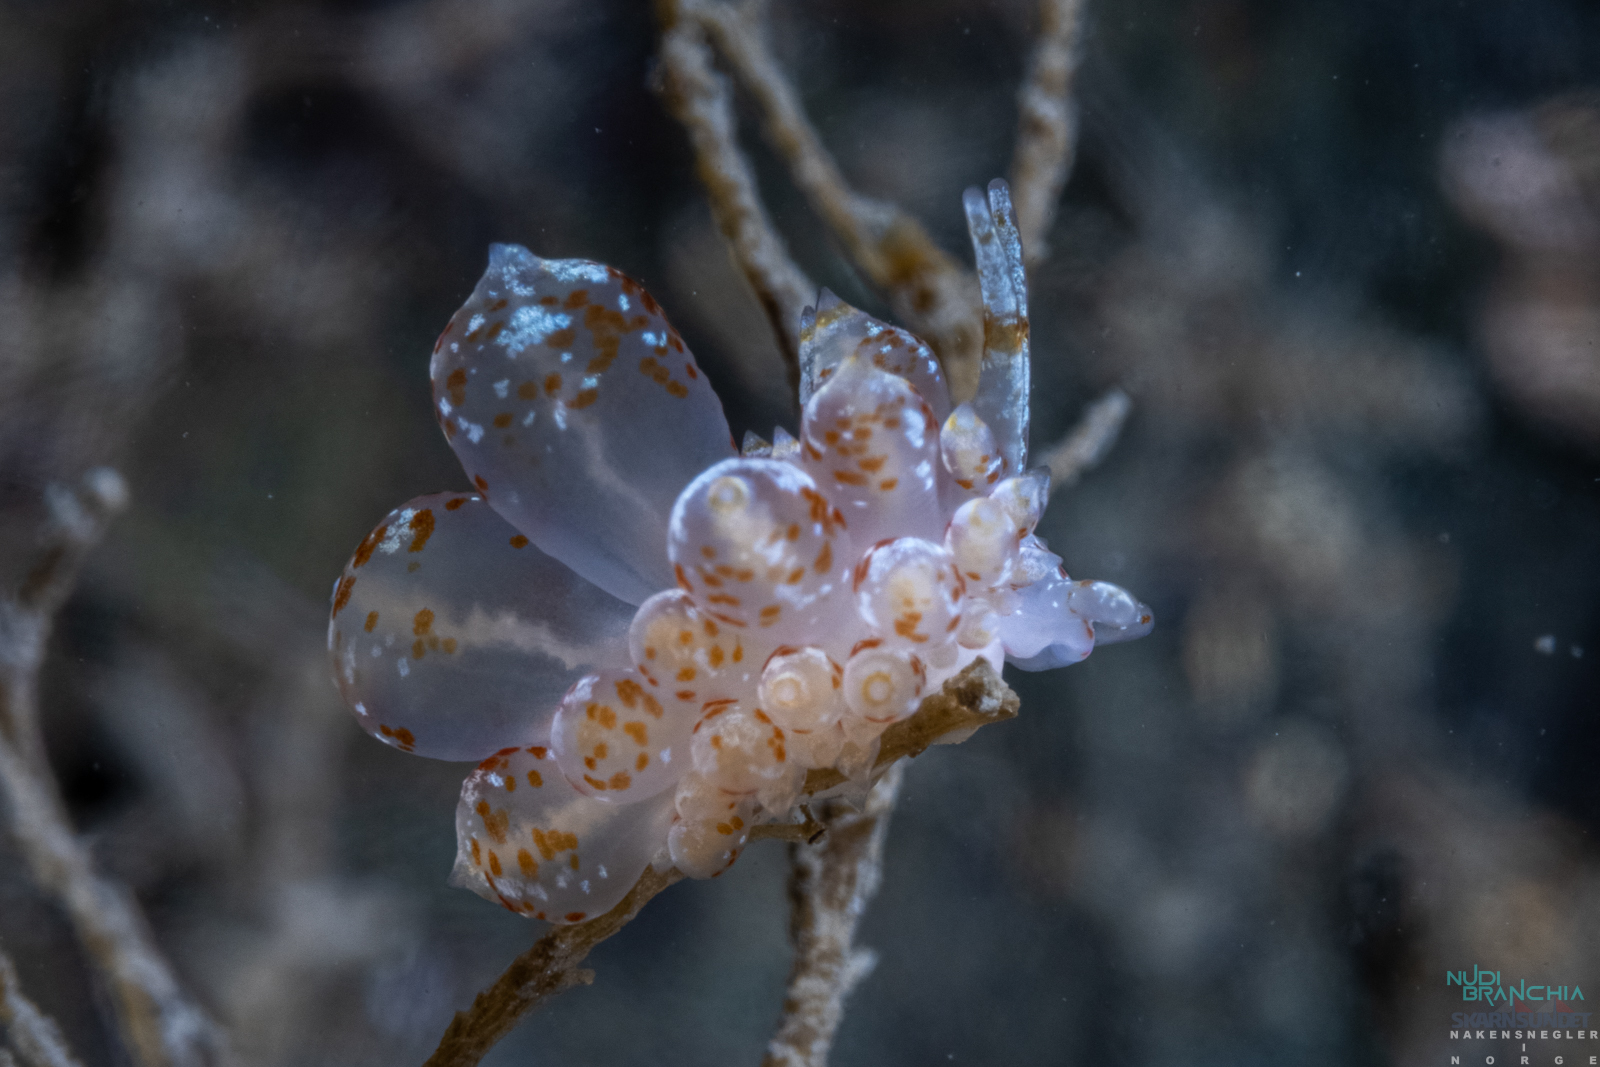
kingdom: Animalia
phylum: Mollusca
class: Gastropoda
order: Nudibranchia
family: Eubranchidae
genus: Amphorina
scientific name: Amphorina pallida
